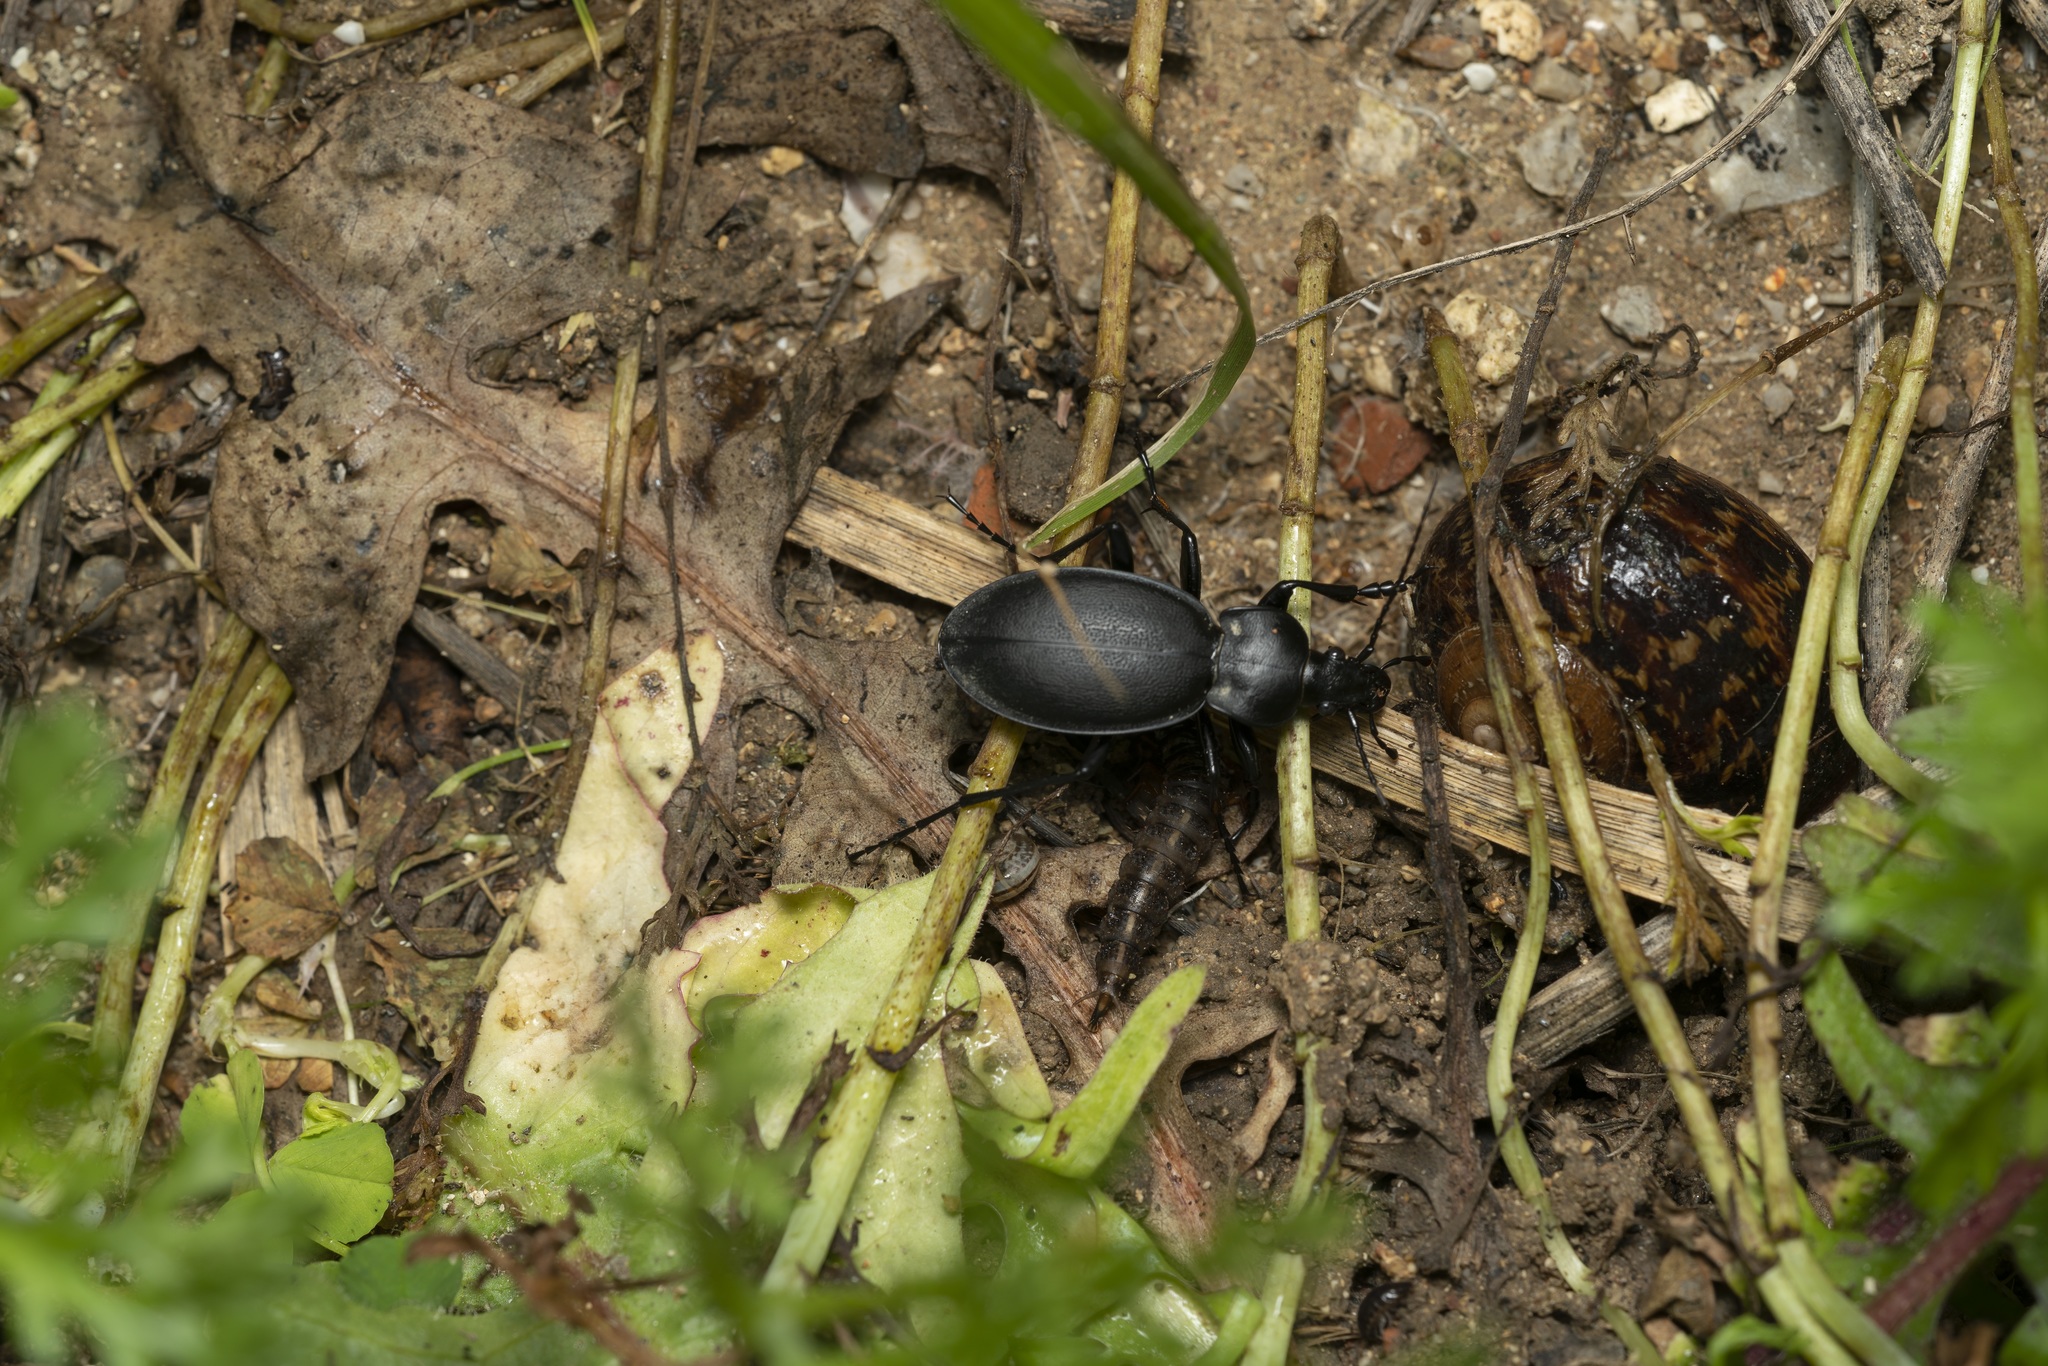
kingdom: Animalia
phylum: Arthropoda
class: Insecta
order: Coleoptera
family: Carabidae
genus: Carabus
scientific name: Carabus coriaceus
